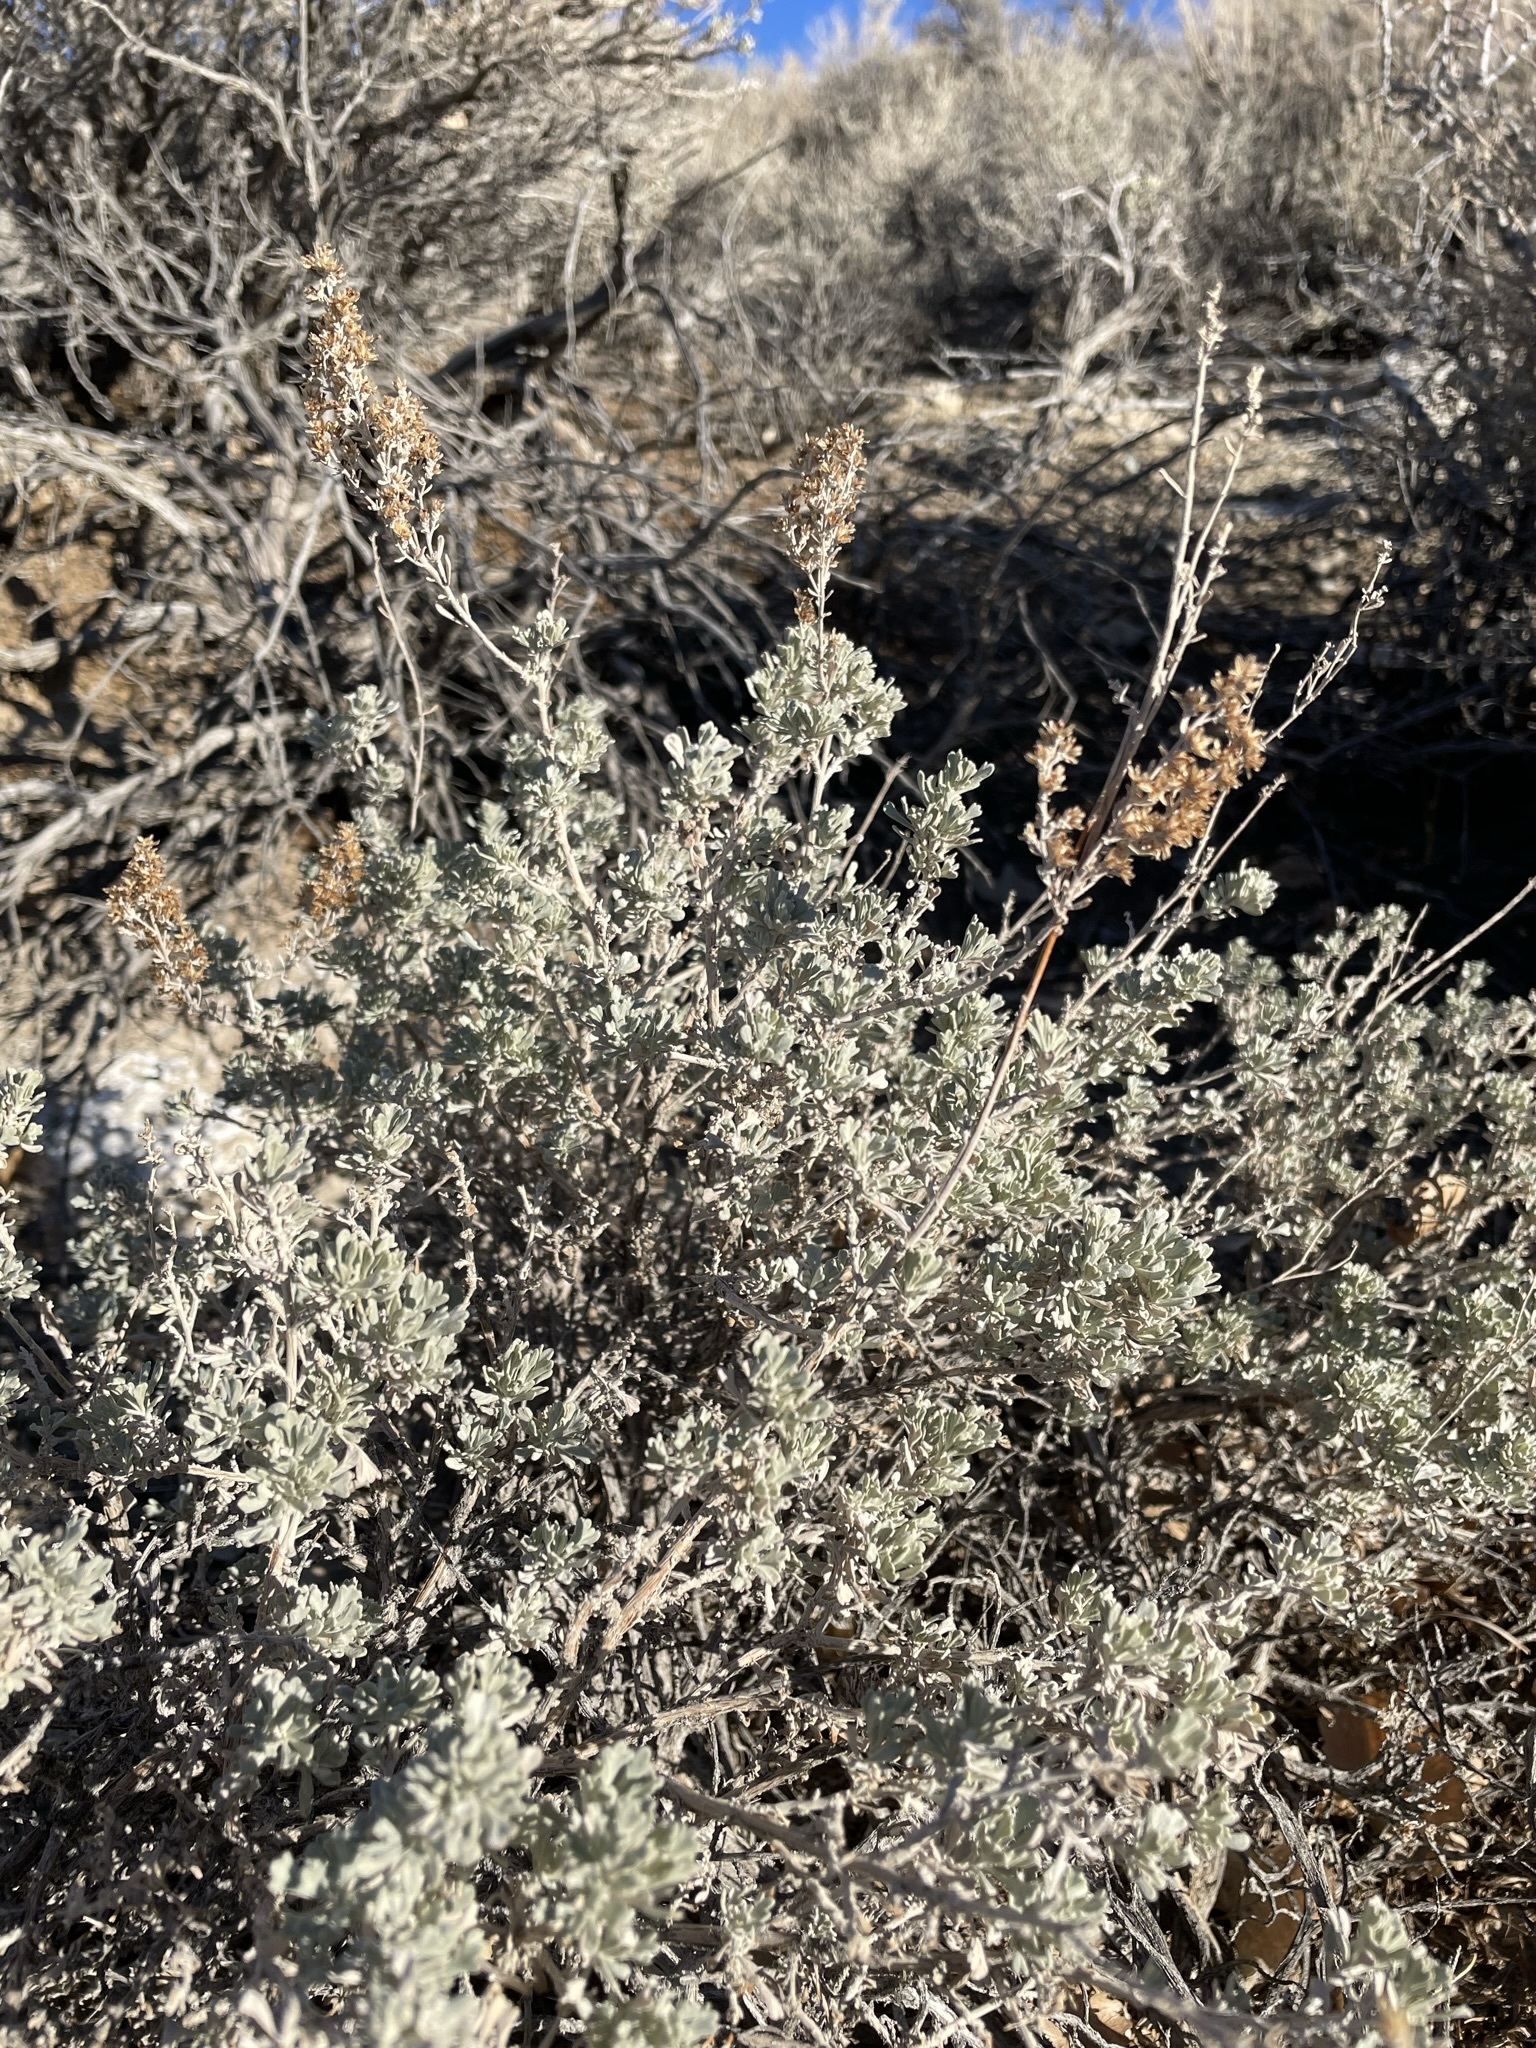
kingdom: Plantae
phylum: Tracheophyta
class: Magnoliopsida
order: Asterales
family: Asteraceae
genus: Artemisia
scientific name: Artemisia tridentata
